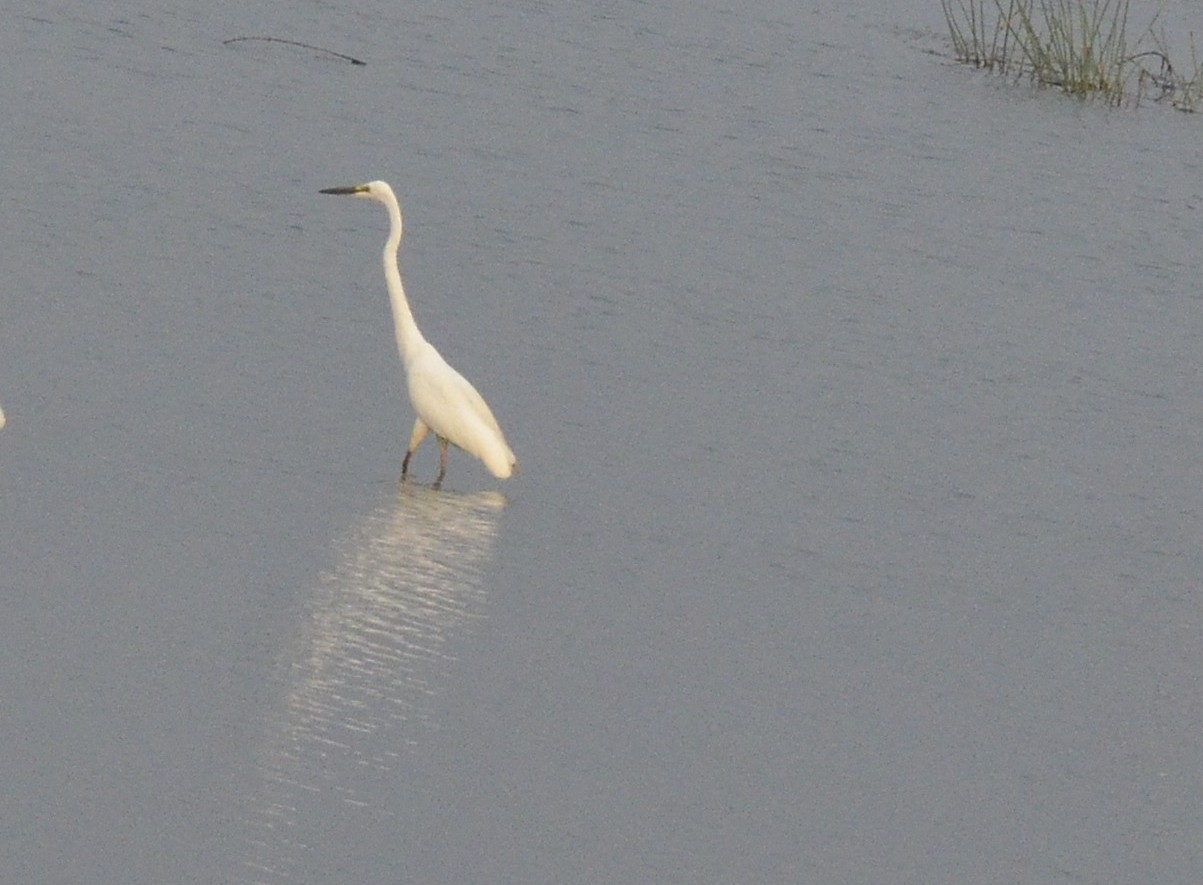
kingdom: Animalia
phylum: Chordata
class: Aves
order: Pelecaniformes
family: Ardeidae
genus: Ardea
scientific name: Ardea alba
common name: Great egret
